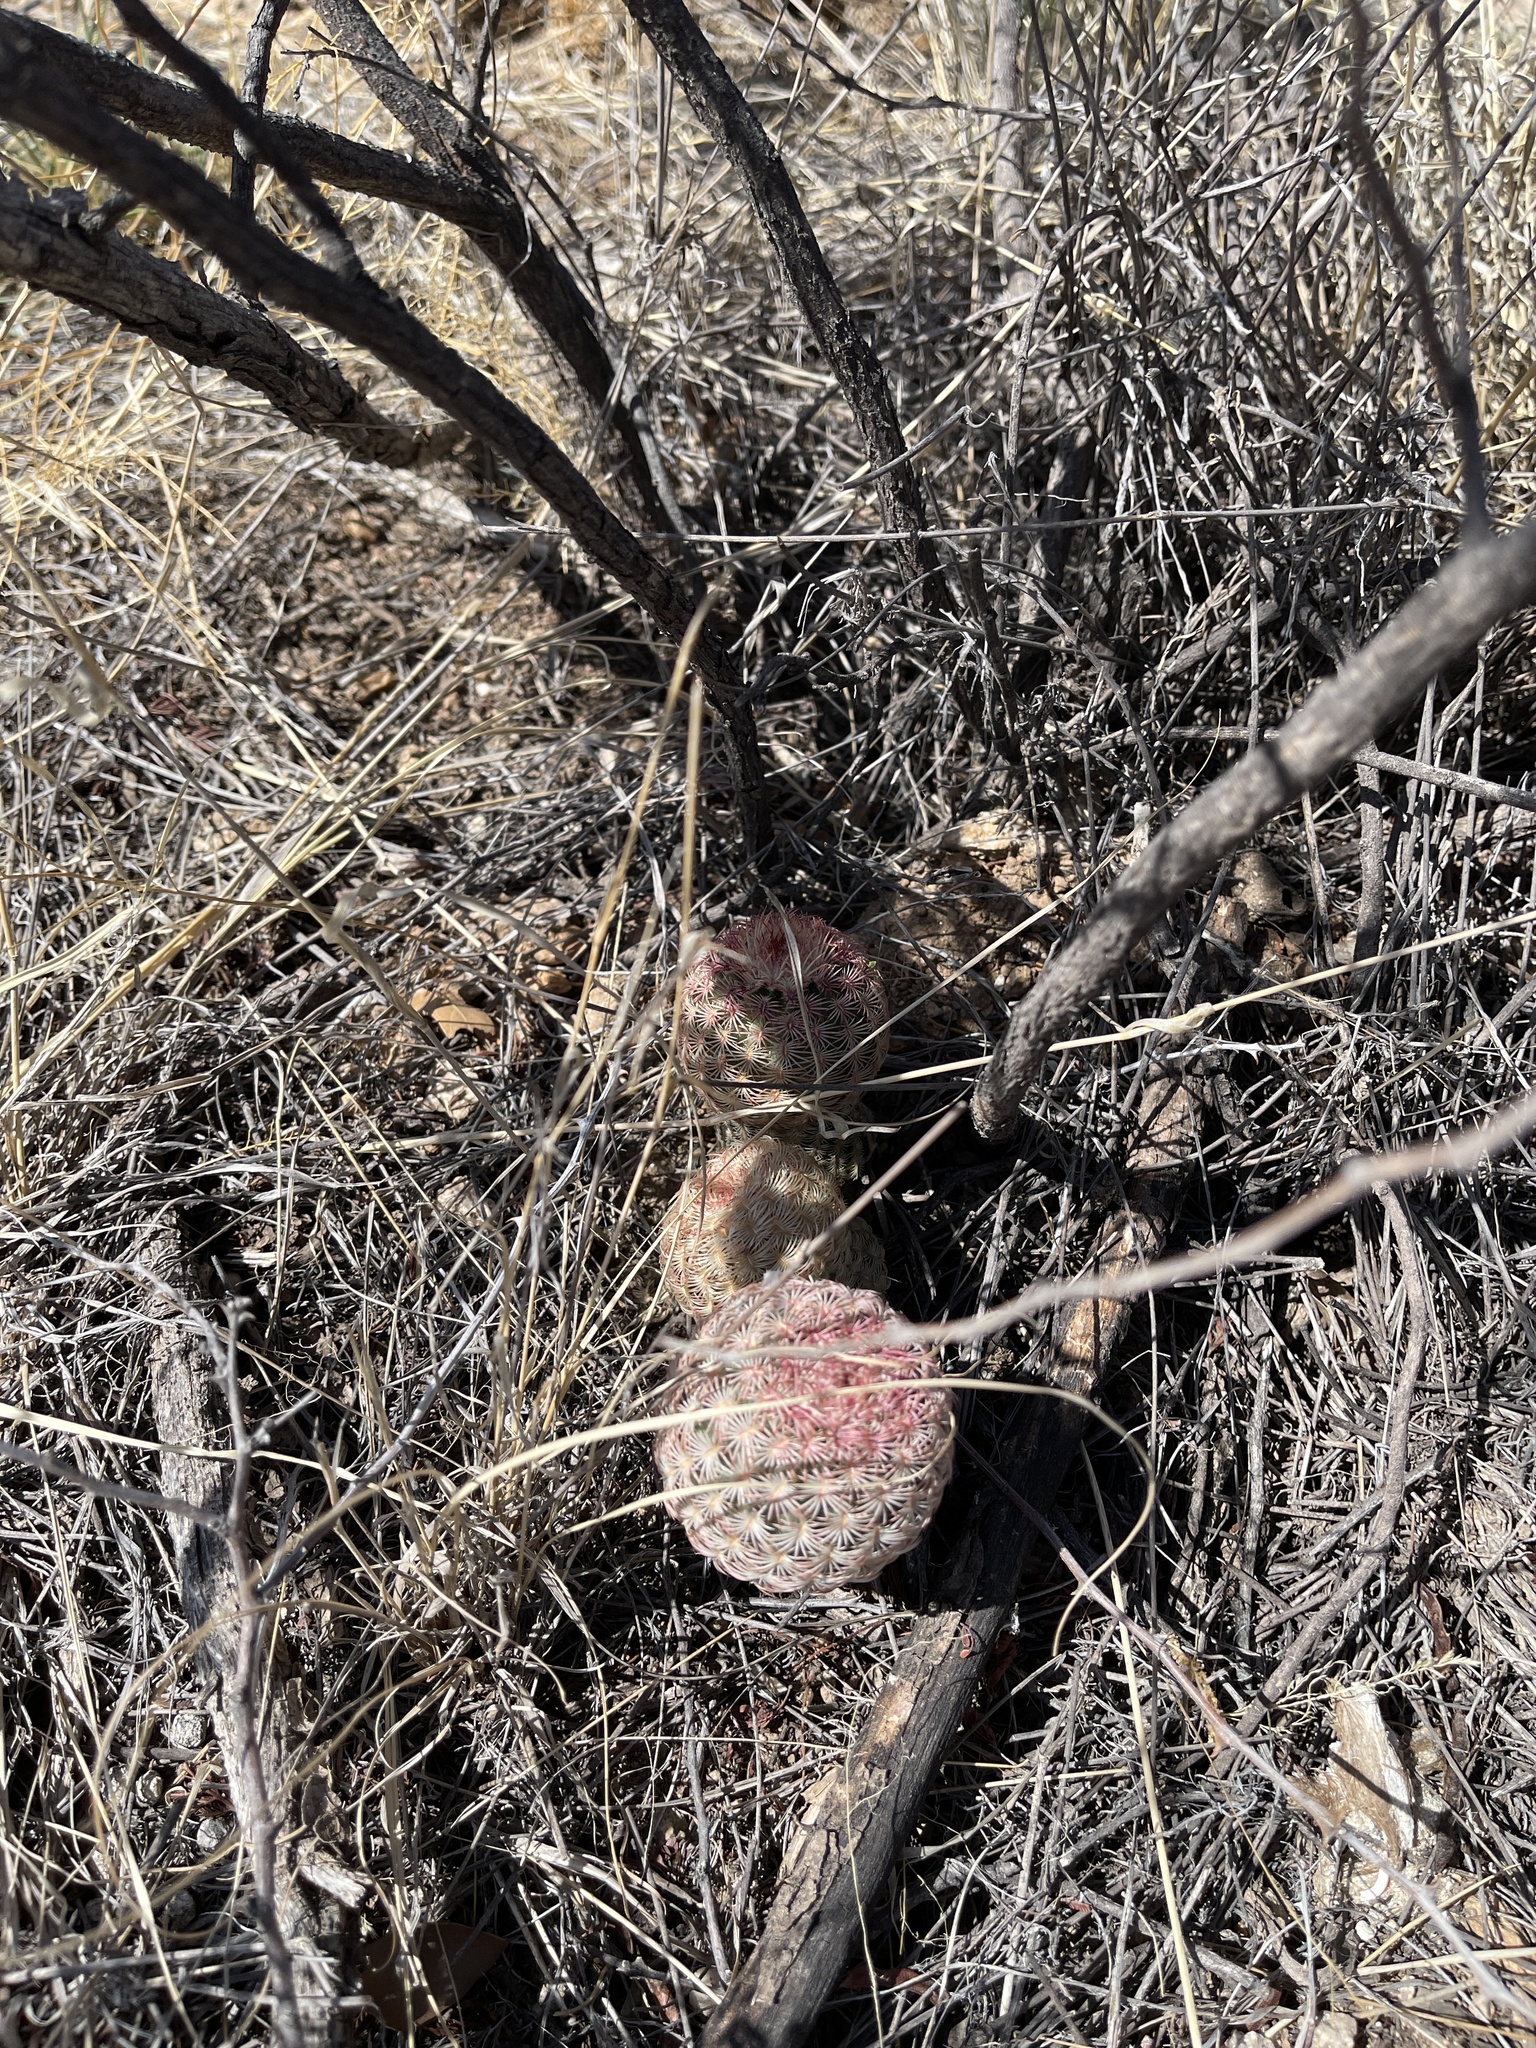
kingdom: Plantae
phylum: Tracheophyta
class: Magnoliopsida
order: Caryophyllales
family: Cactaceae
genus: Echinocereus
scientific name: Echinocereus rigidissimus
